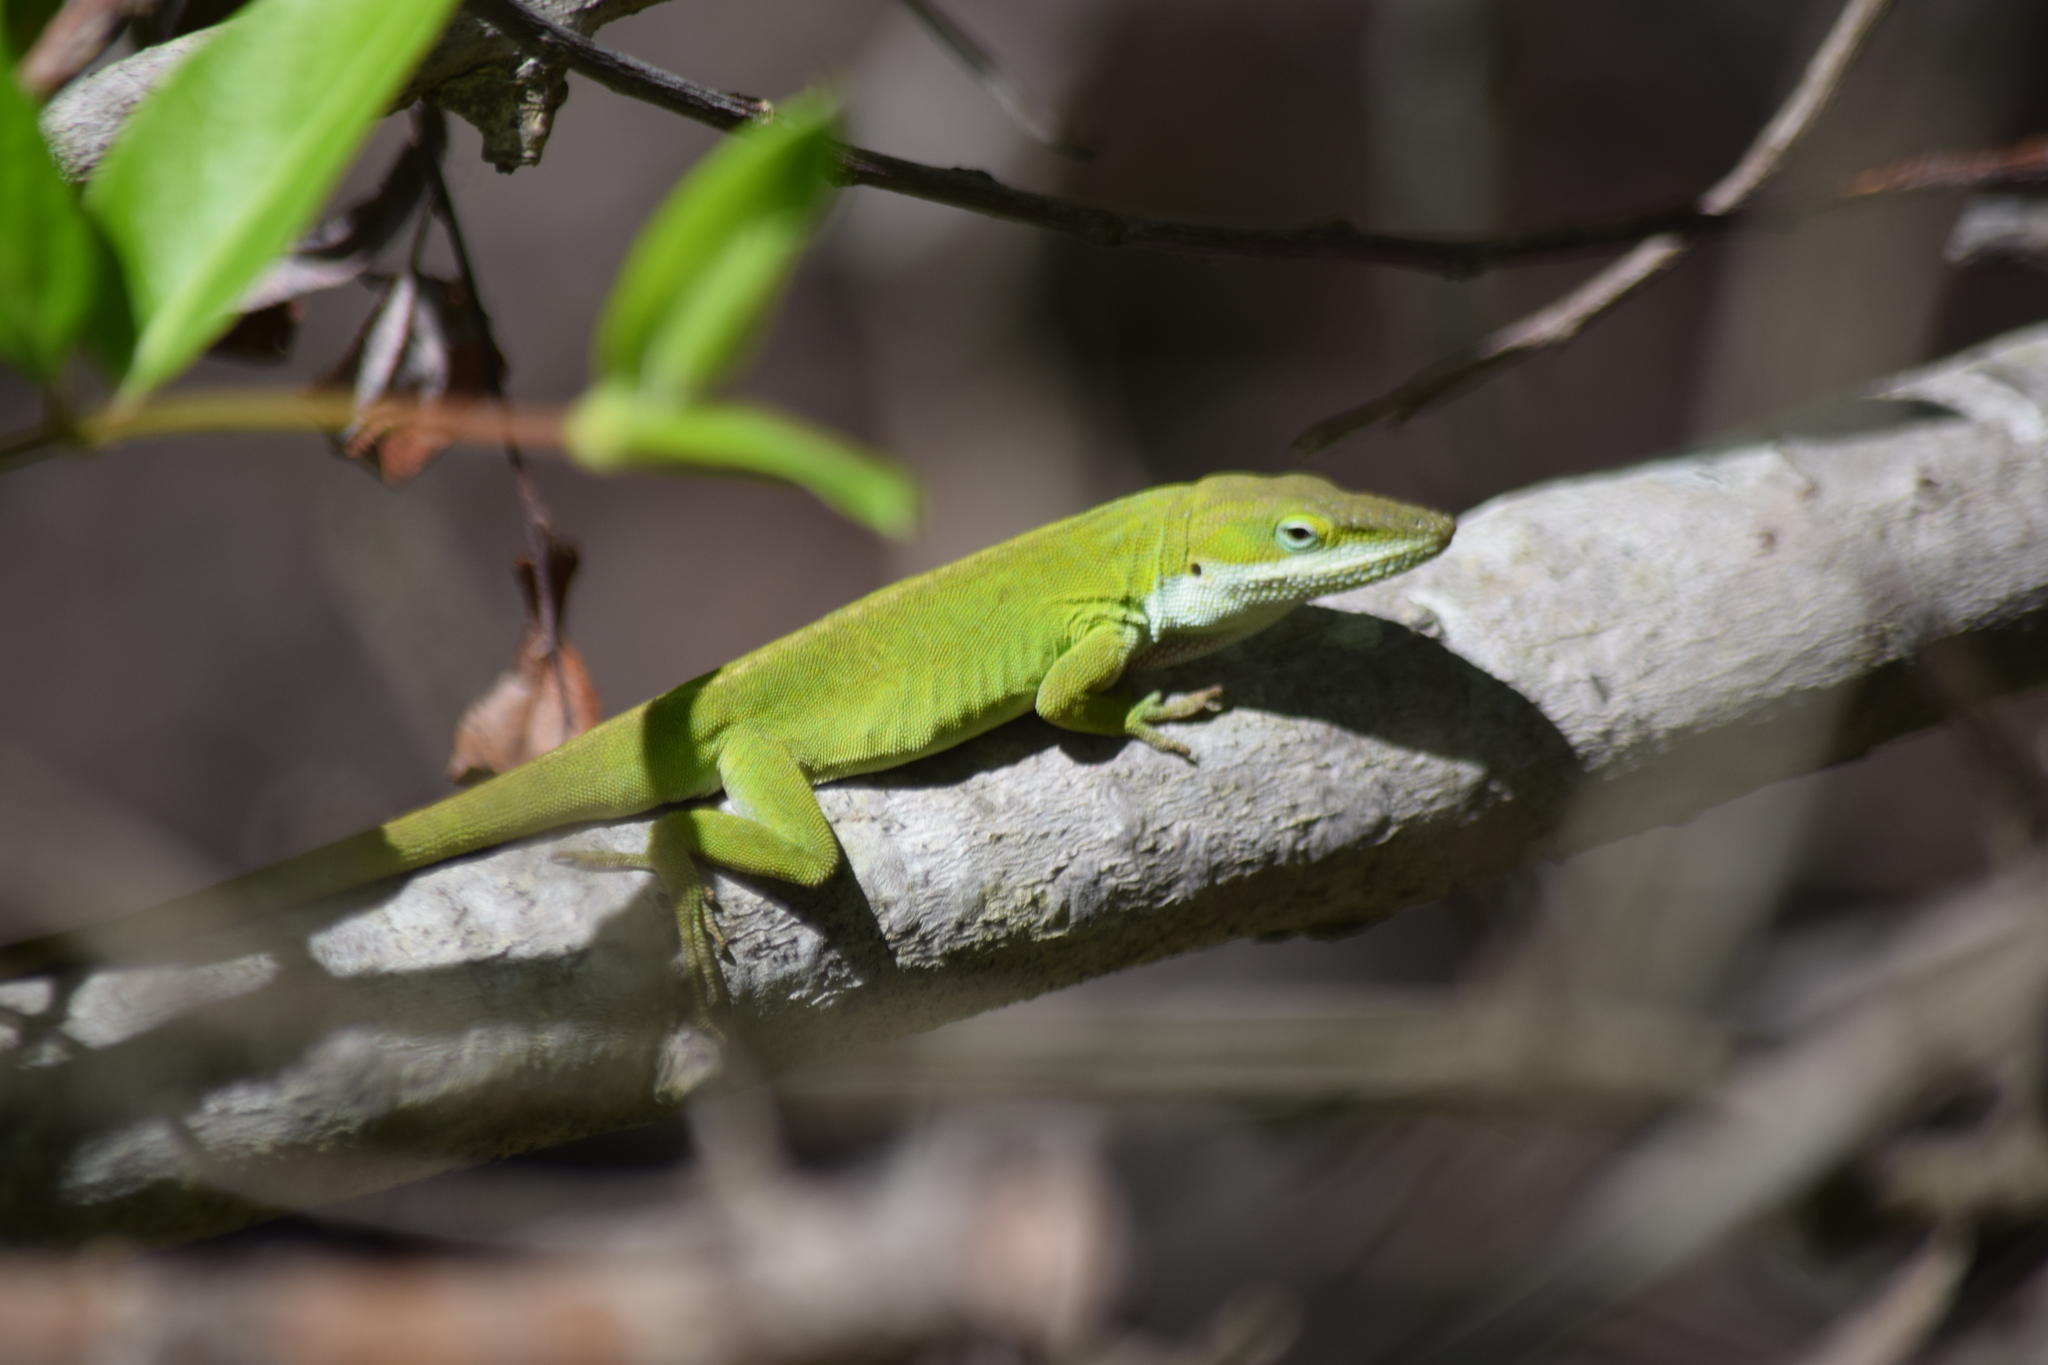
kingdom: Animalia
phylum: Chordata
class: Squamata
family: Dactyloidae
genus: Anolis
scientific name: Anolis carolinensis
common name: Green anole
